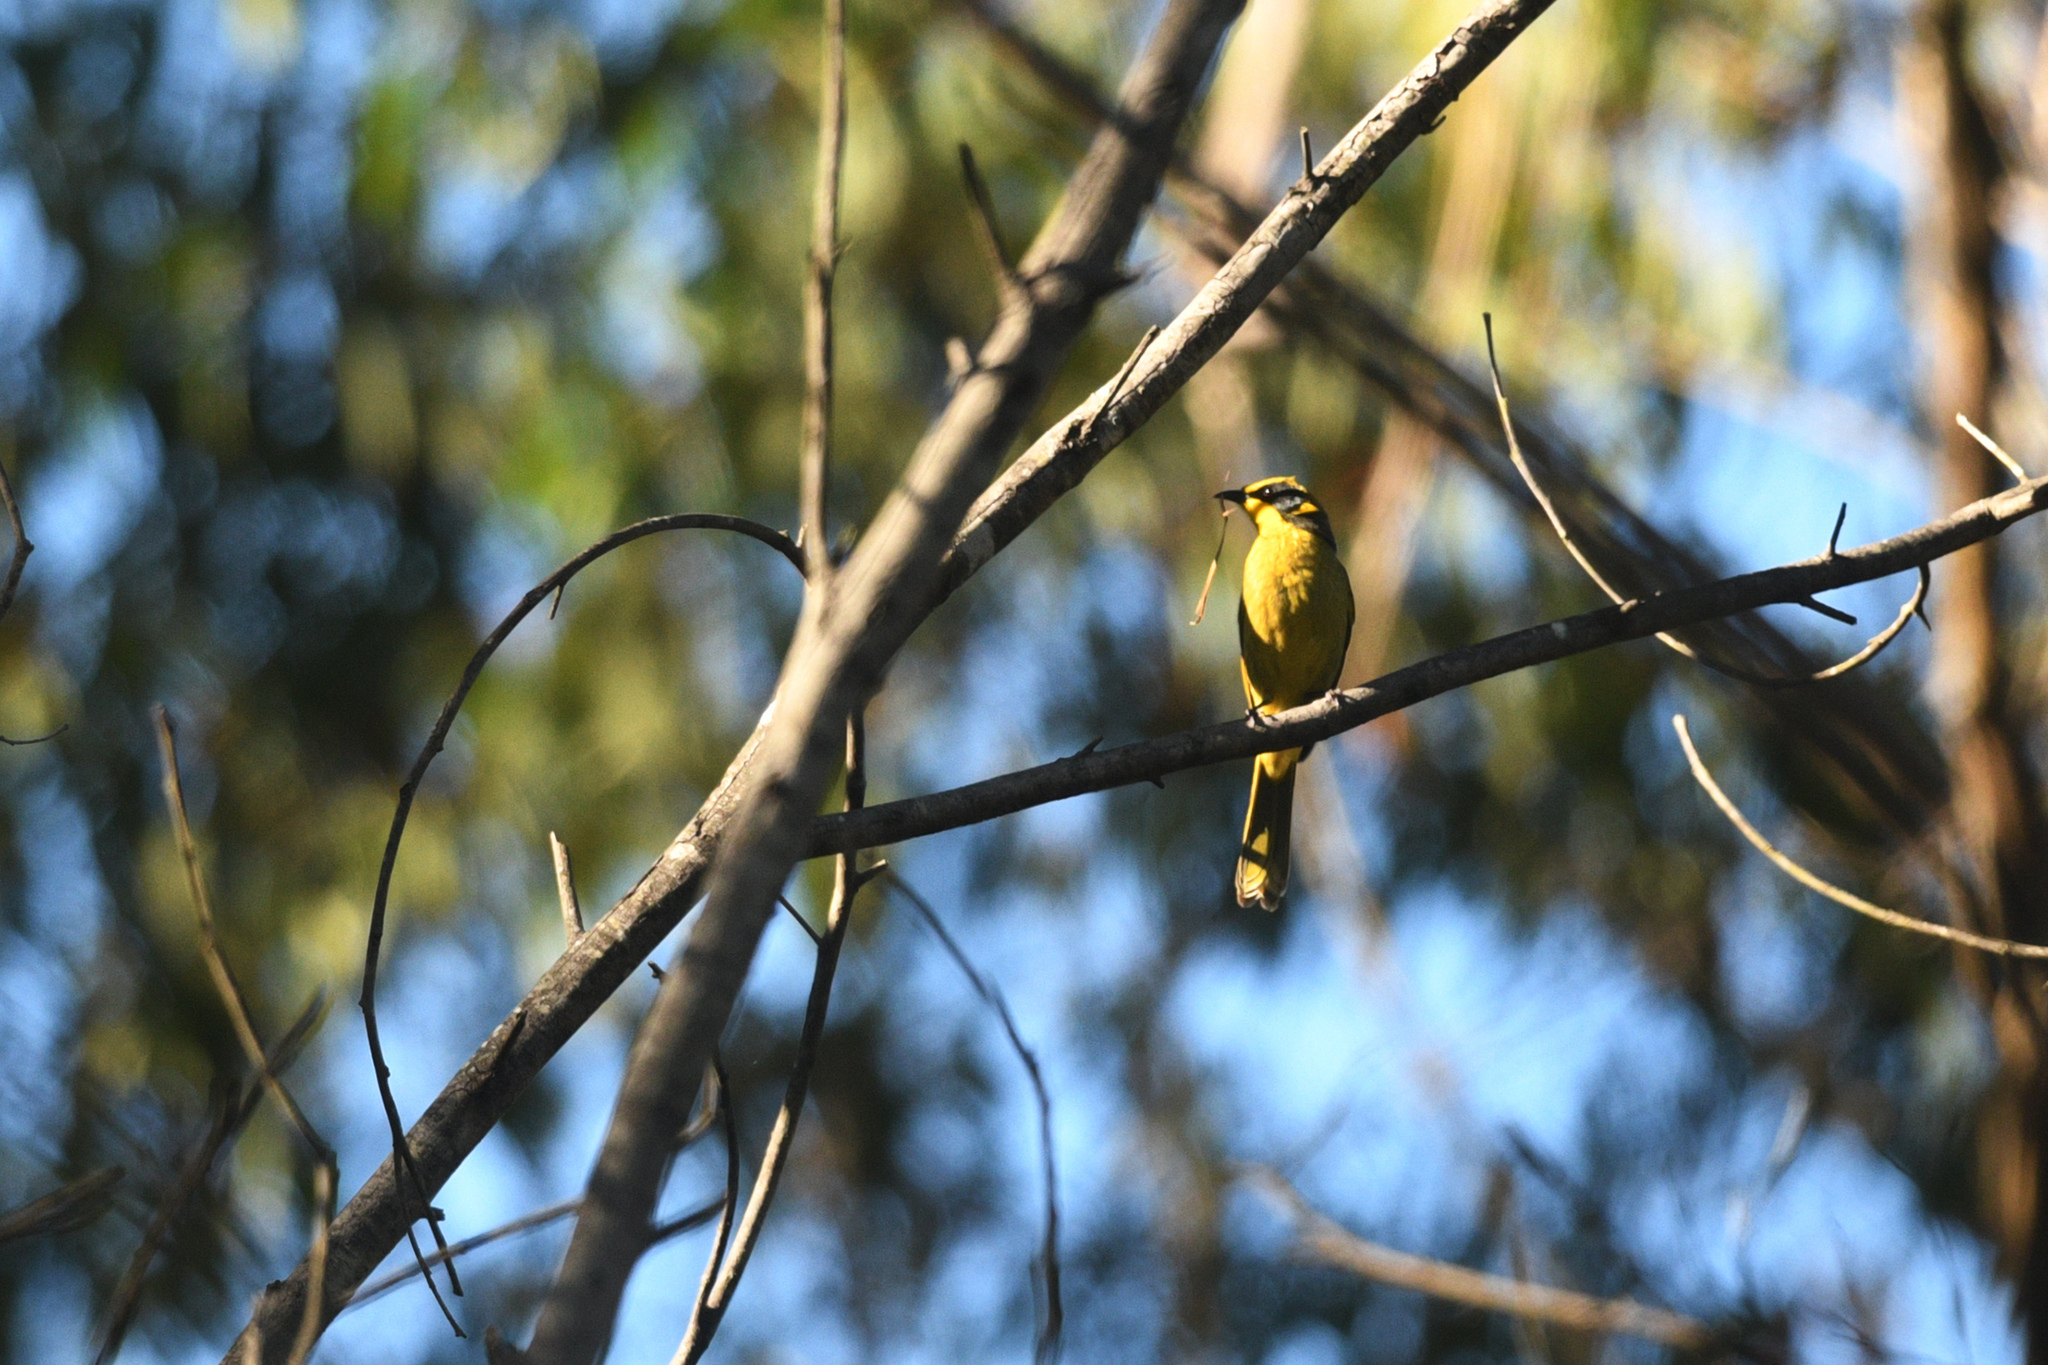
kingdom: Animalia
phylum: Chordata
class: Aves
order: Passeriformes
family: Meliphagidae
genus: Lichenostomus
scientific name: Lichenostomus melanops
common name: Yellow-tufted honeyeater
